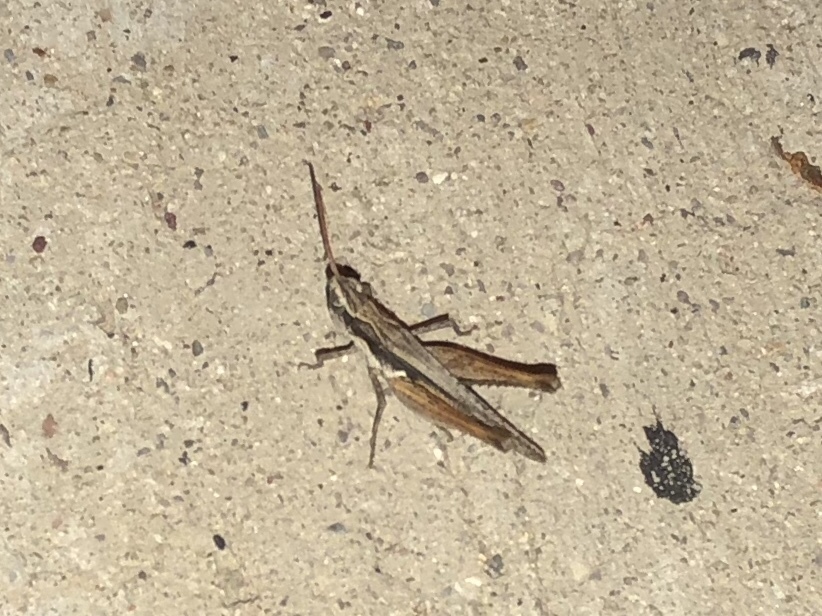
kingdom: Animalia
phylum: Arthropoda
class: Insecta
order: Orthoptera
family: Acrididae
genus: Horesidotes
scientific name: Horesidotes cinereus
